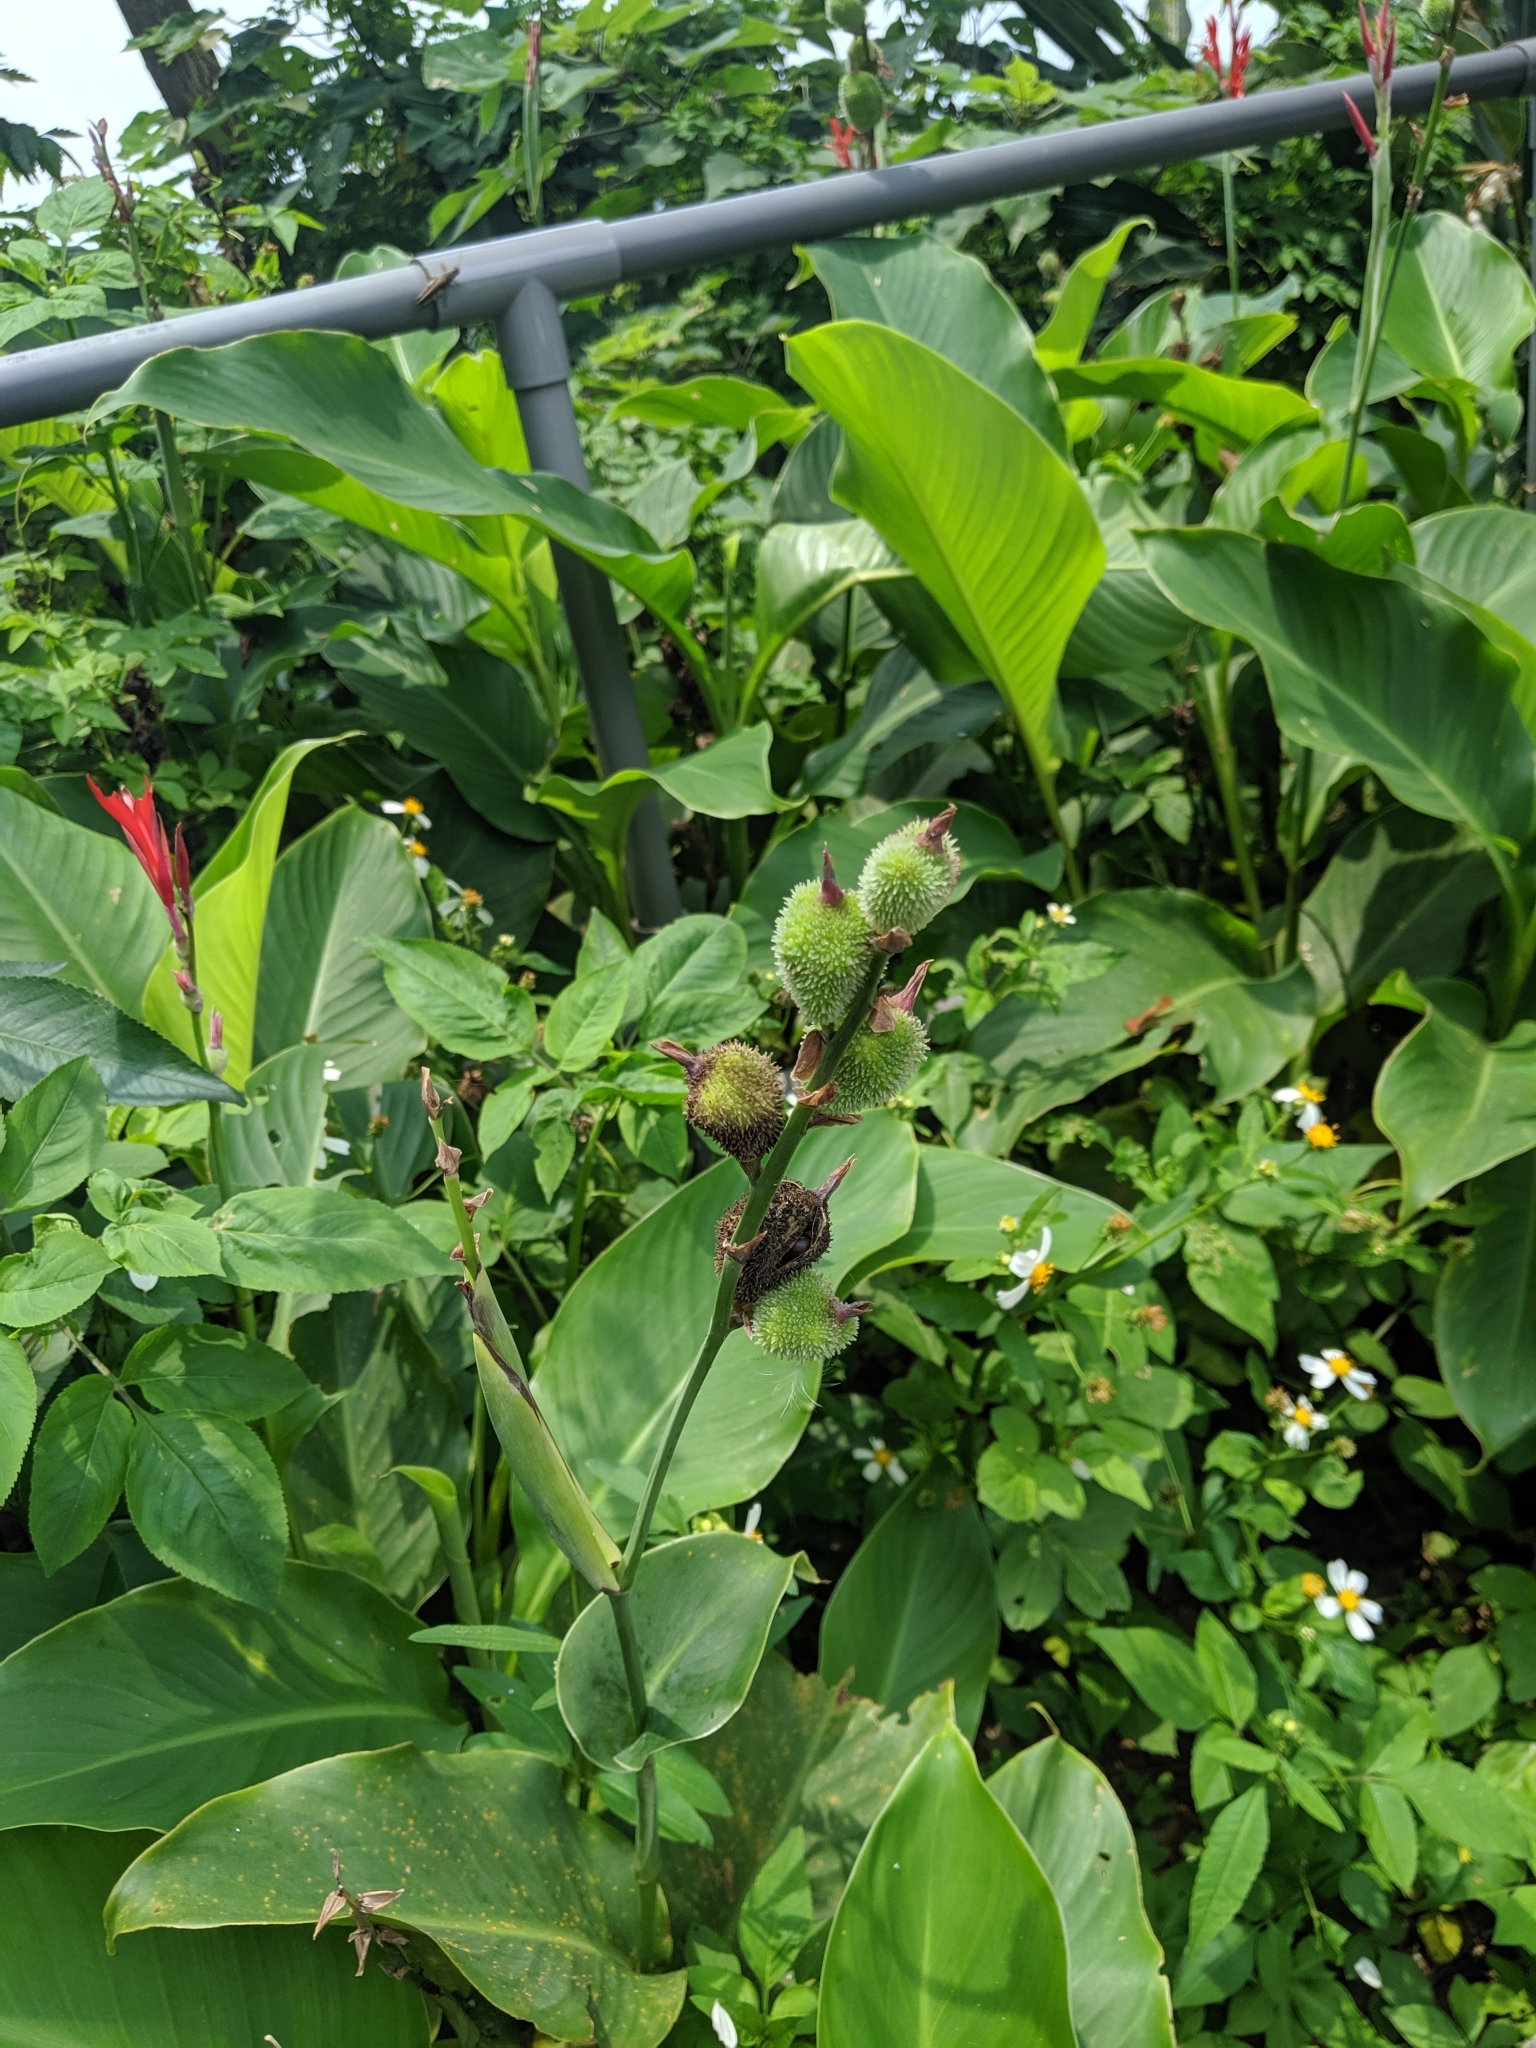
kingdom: Plantae
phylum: Tracheophyta
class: Liliopsida
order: Zingiberales
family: Cannaceae
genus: Canna
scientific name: Canna indica
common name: Indian shot
